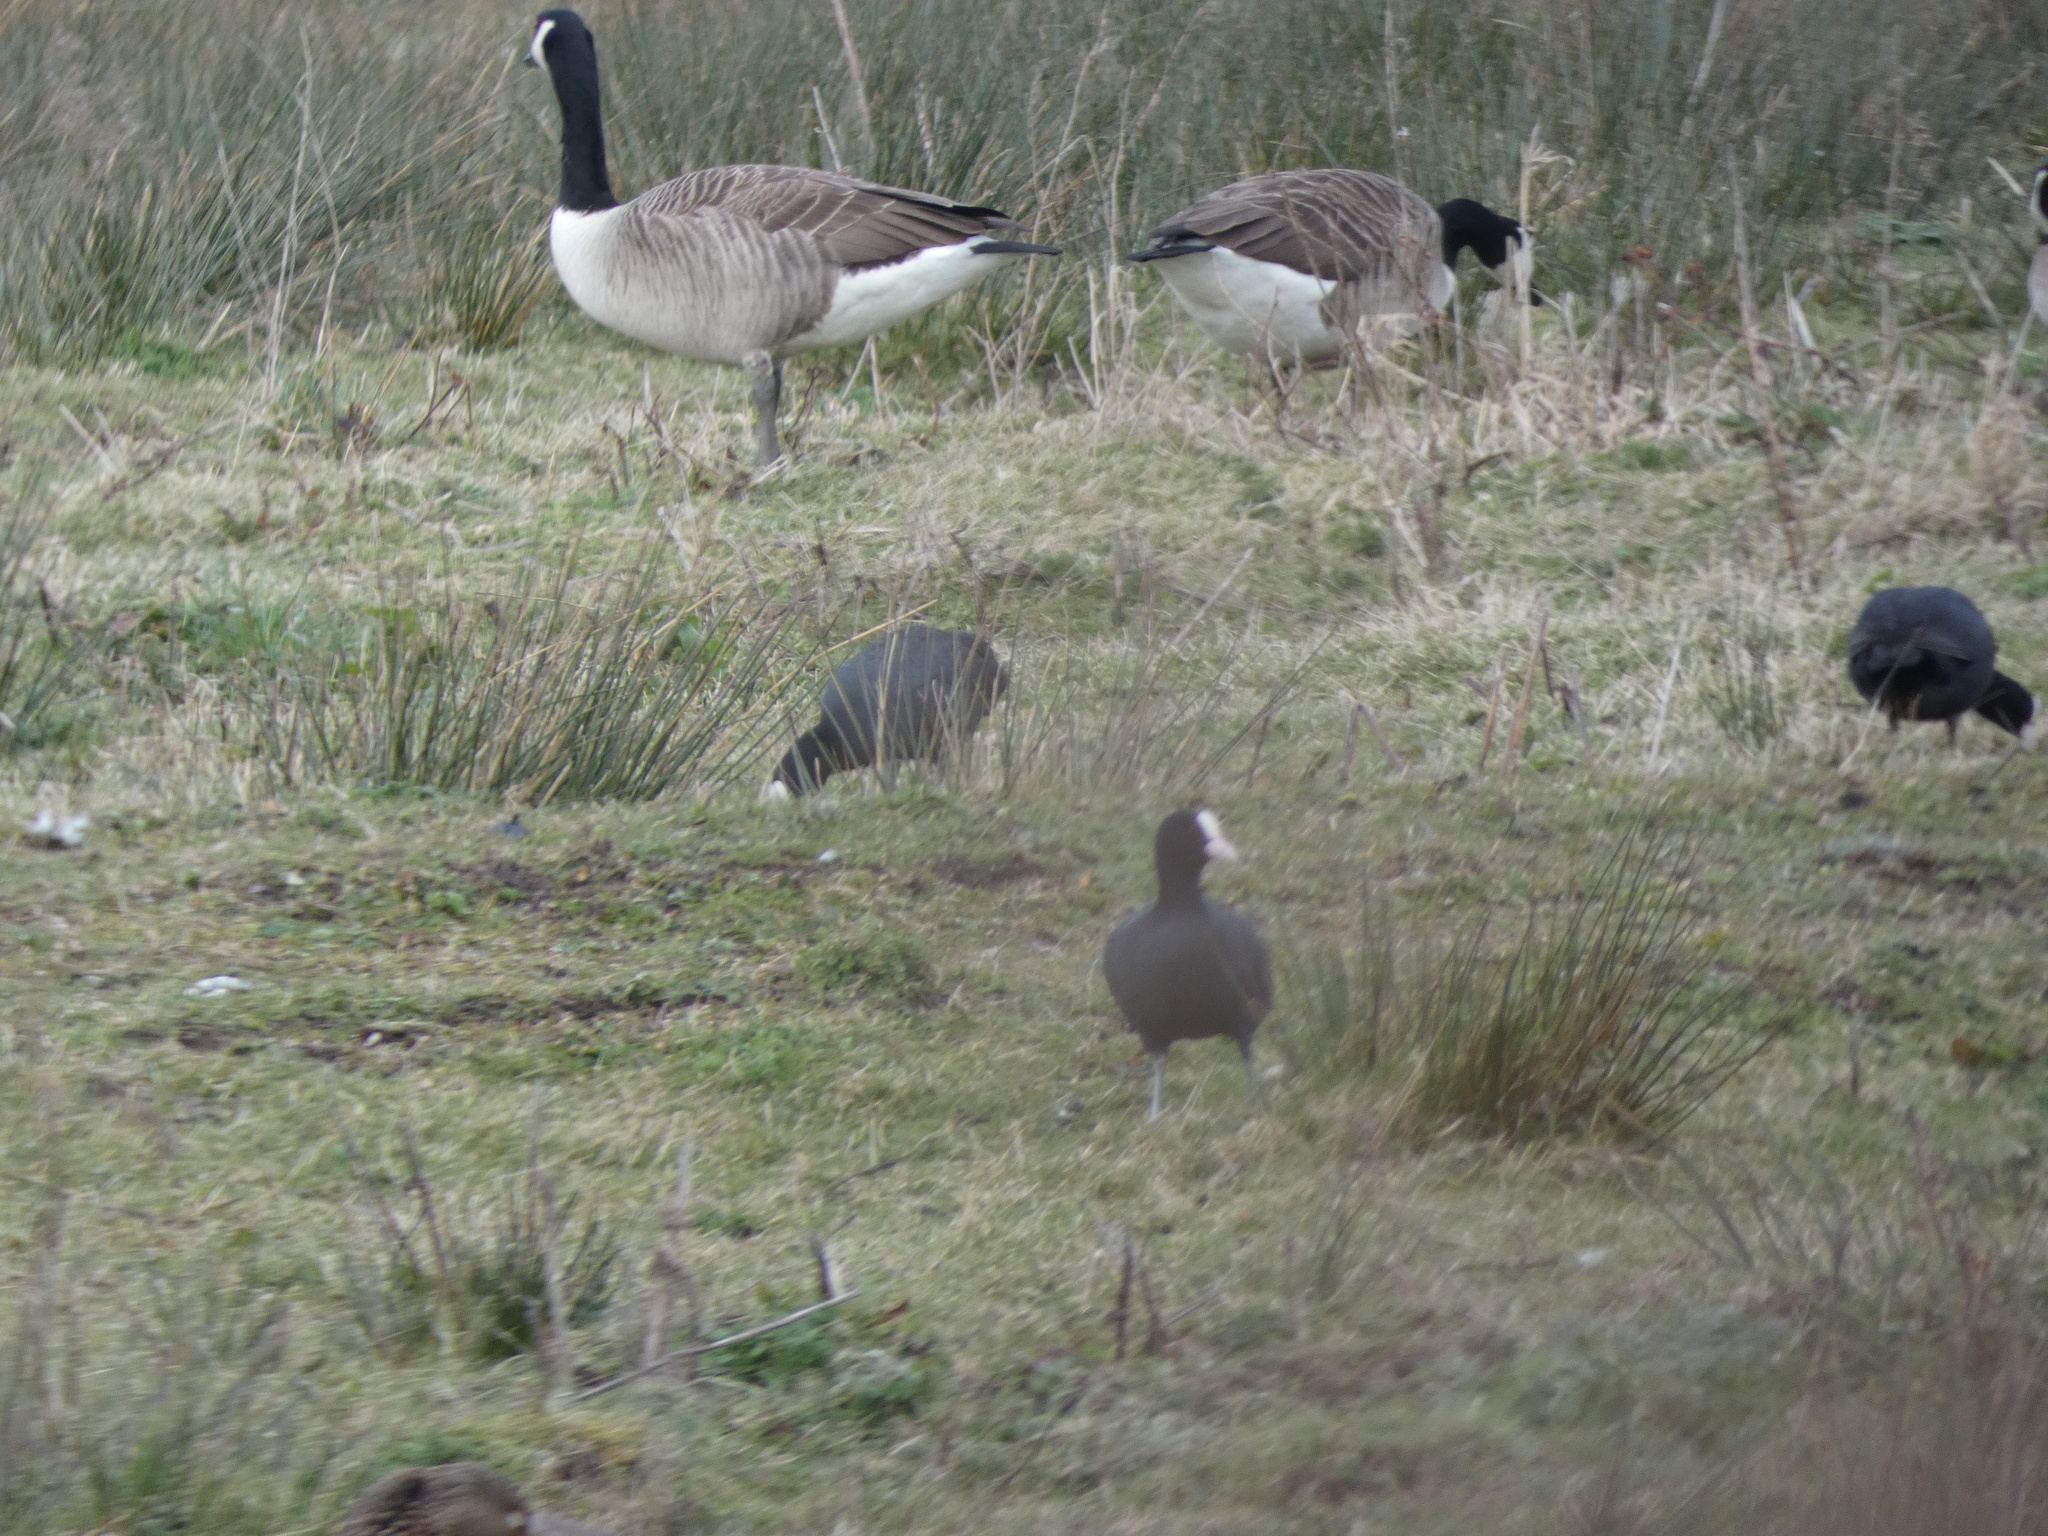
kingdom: Animalia
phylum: Chordata
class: Aves
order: Gruiformes
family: Rallidae
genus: Fulica
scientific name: Fulica atra
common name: Eurasian coot
